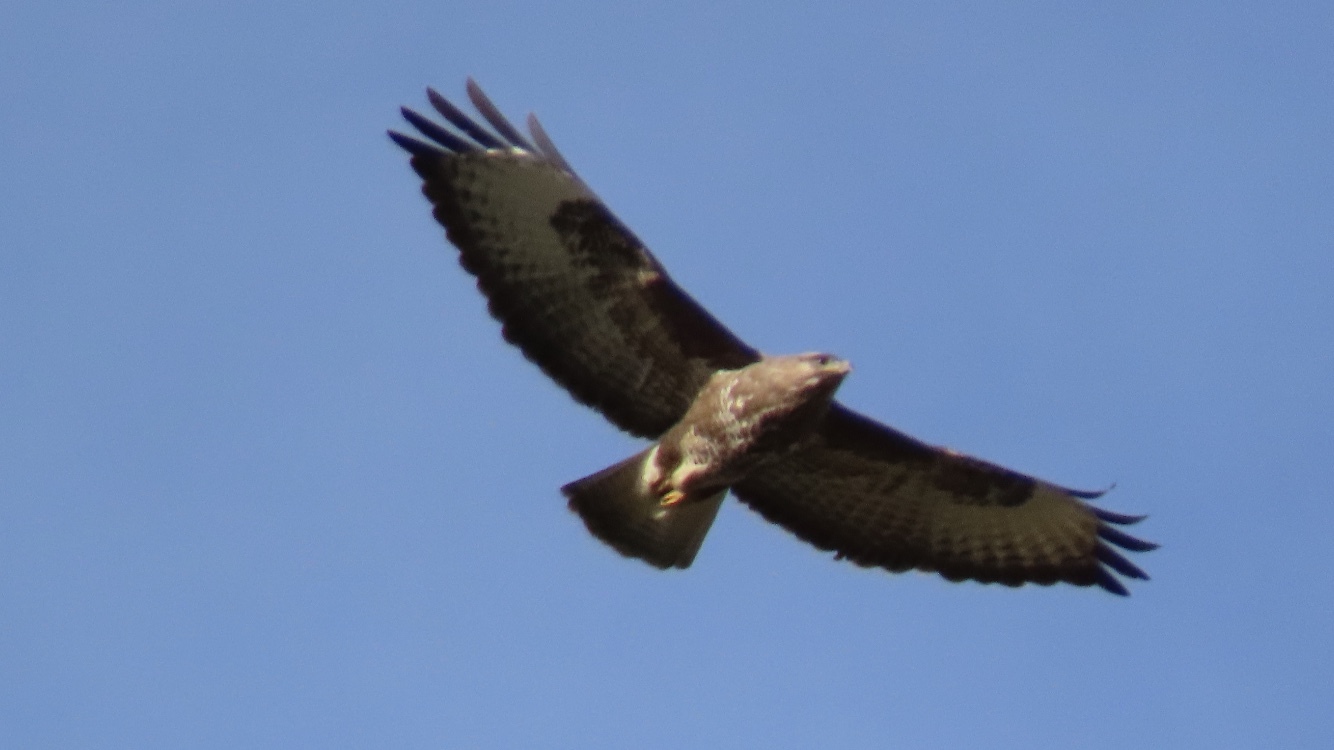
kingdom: Animalia
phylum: Chordata
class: Aves
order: Accipitriformes
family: Accipitridae
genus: Buteo
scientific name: Buteo buteo
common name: Common buzzard
